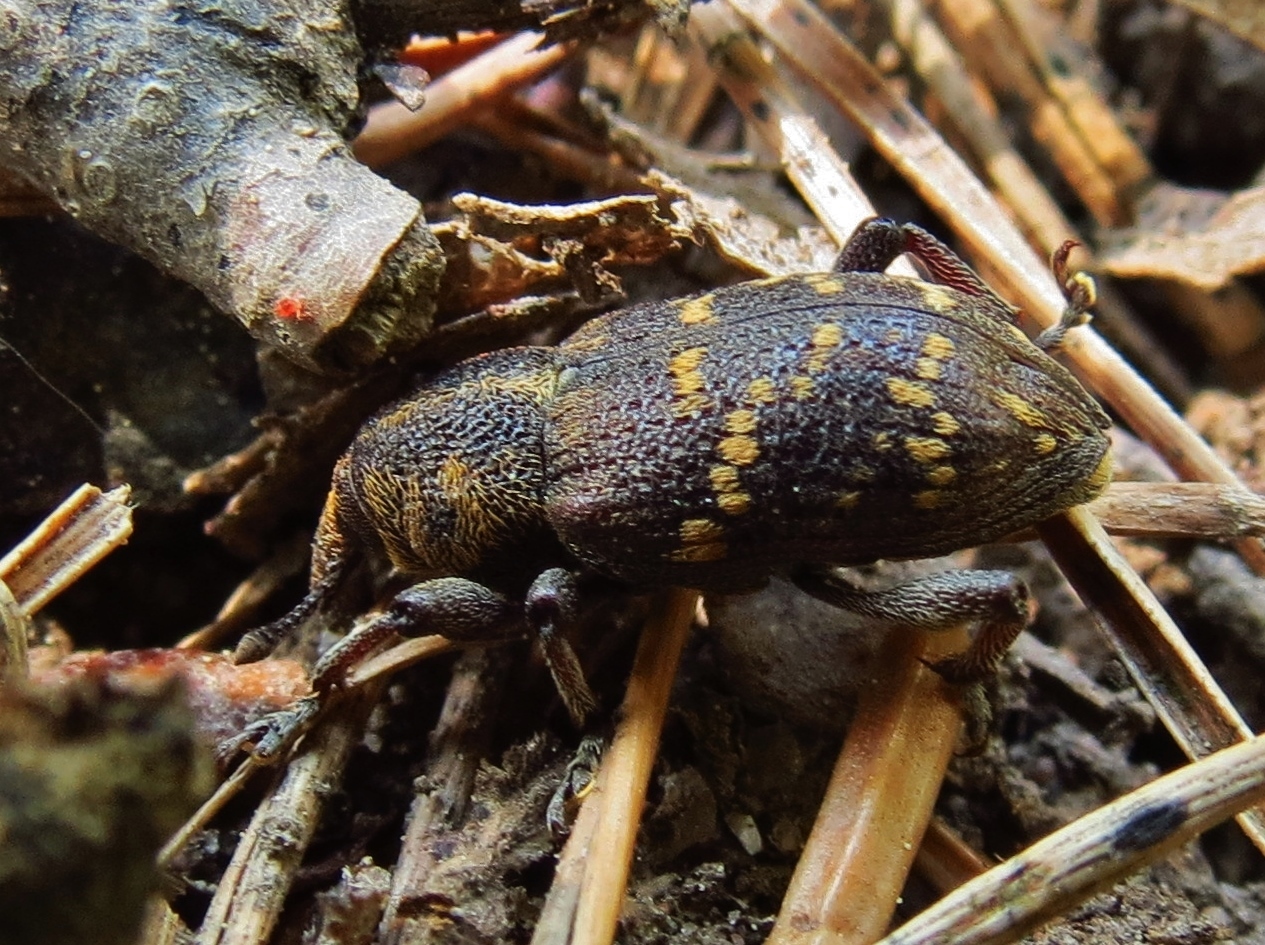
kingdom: Animalia
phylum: Arthropoda
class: Insecta
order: Coleoptera
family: Curculionidae
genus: Hylobius
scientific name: Hylobius abietis
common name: Large pine weevil
